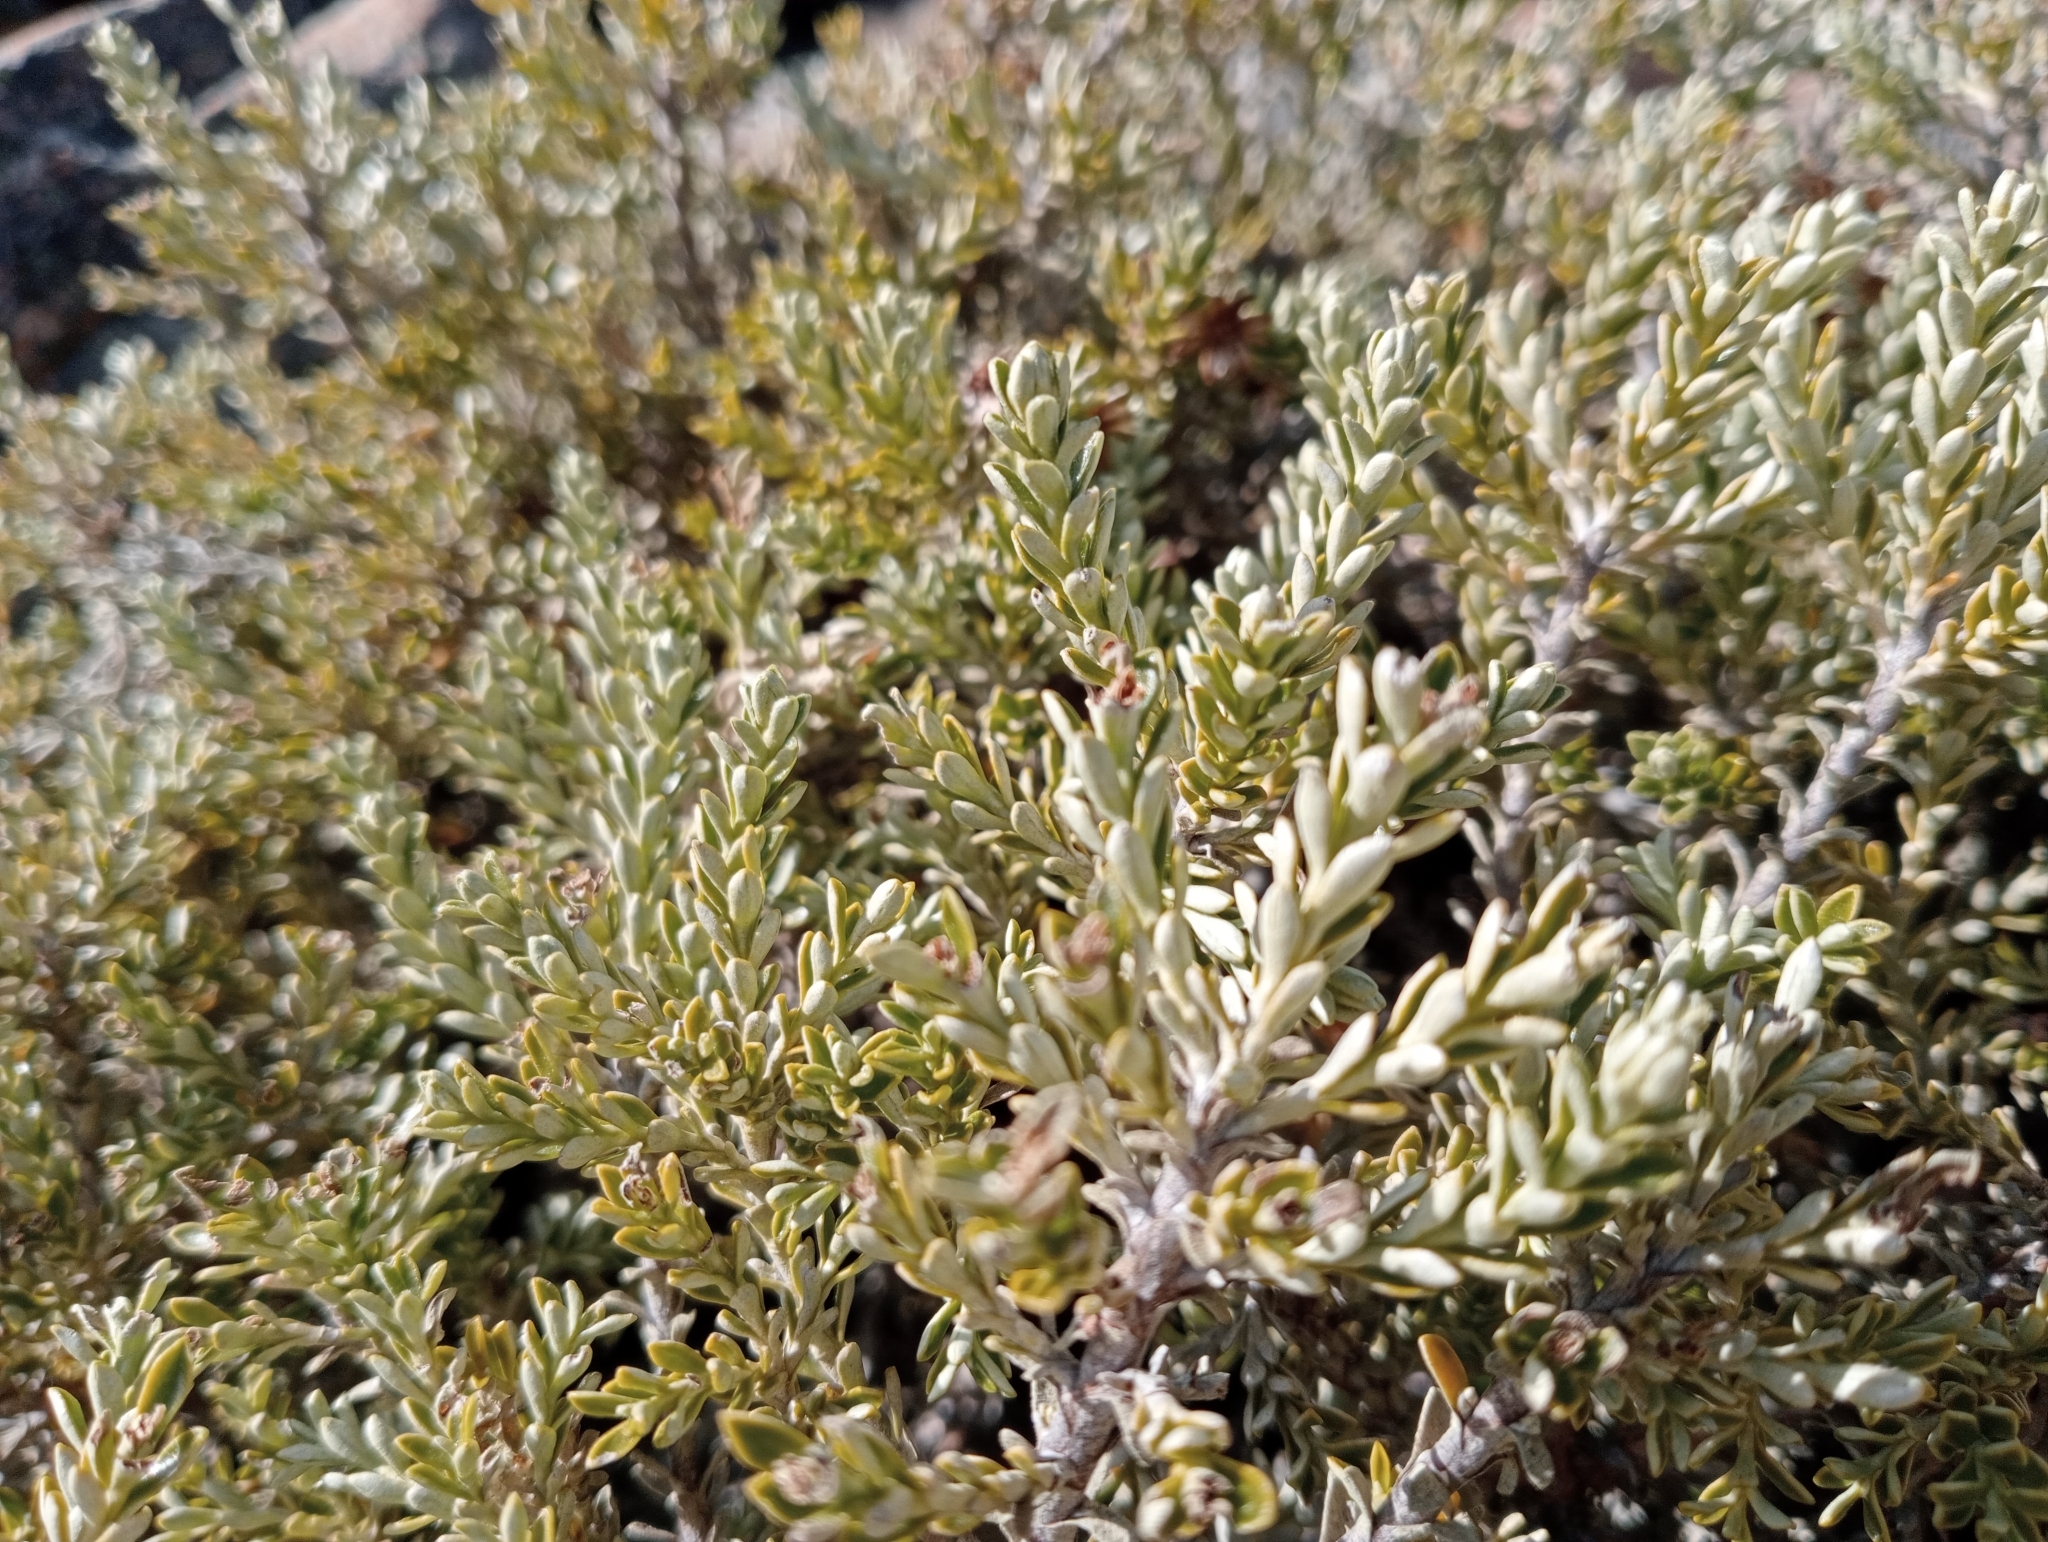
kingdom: Plantae
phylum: Tracheophyta
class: Magnoliopsida
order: Asterales
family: Asteraceae
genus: Brachyglottis
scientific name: Brachyglottis cassinioides
